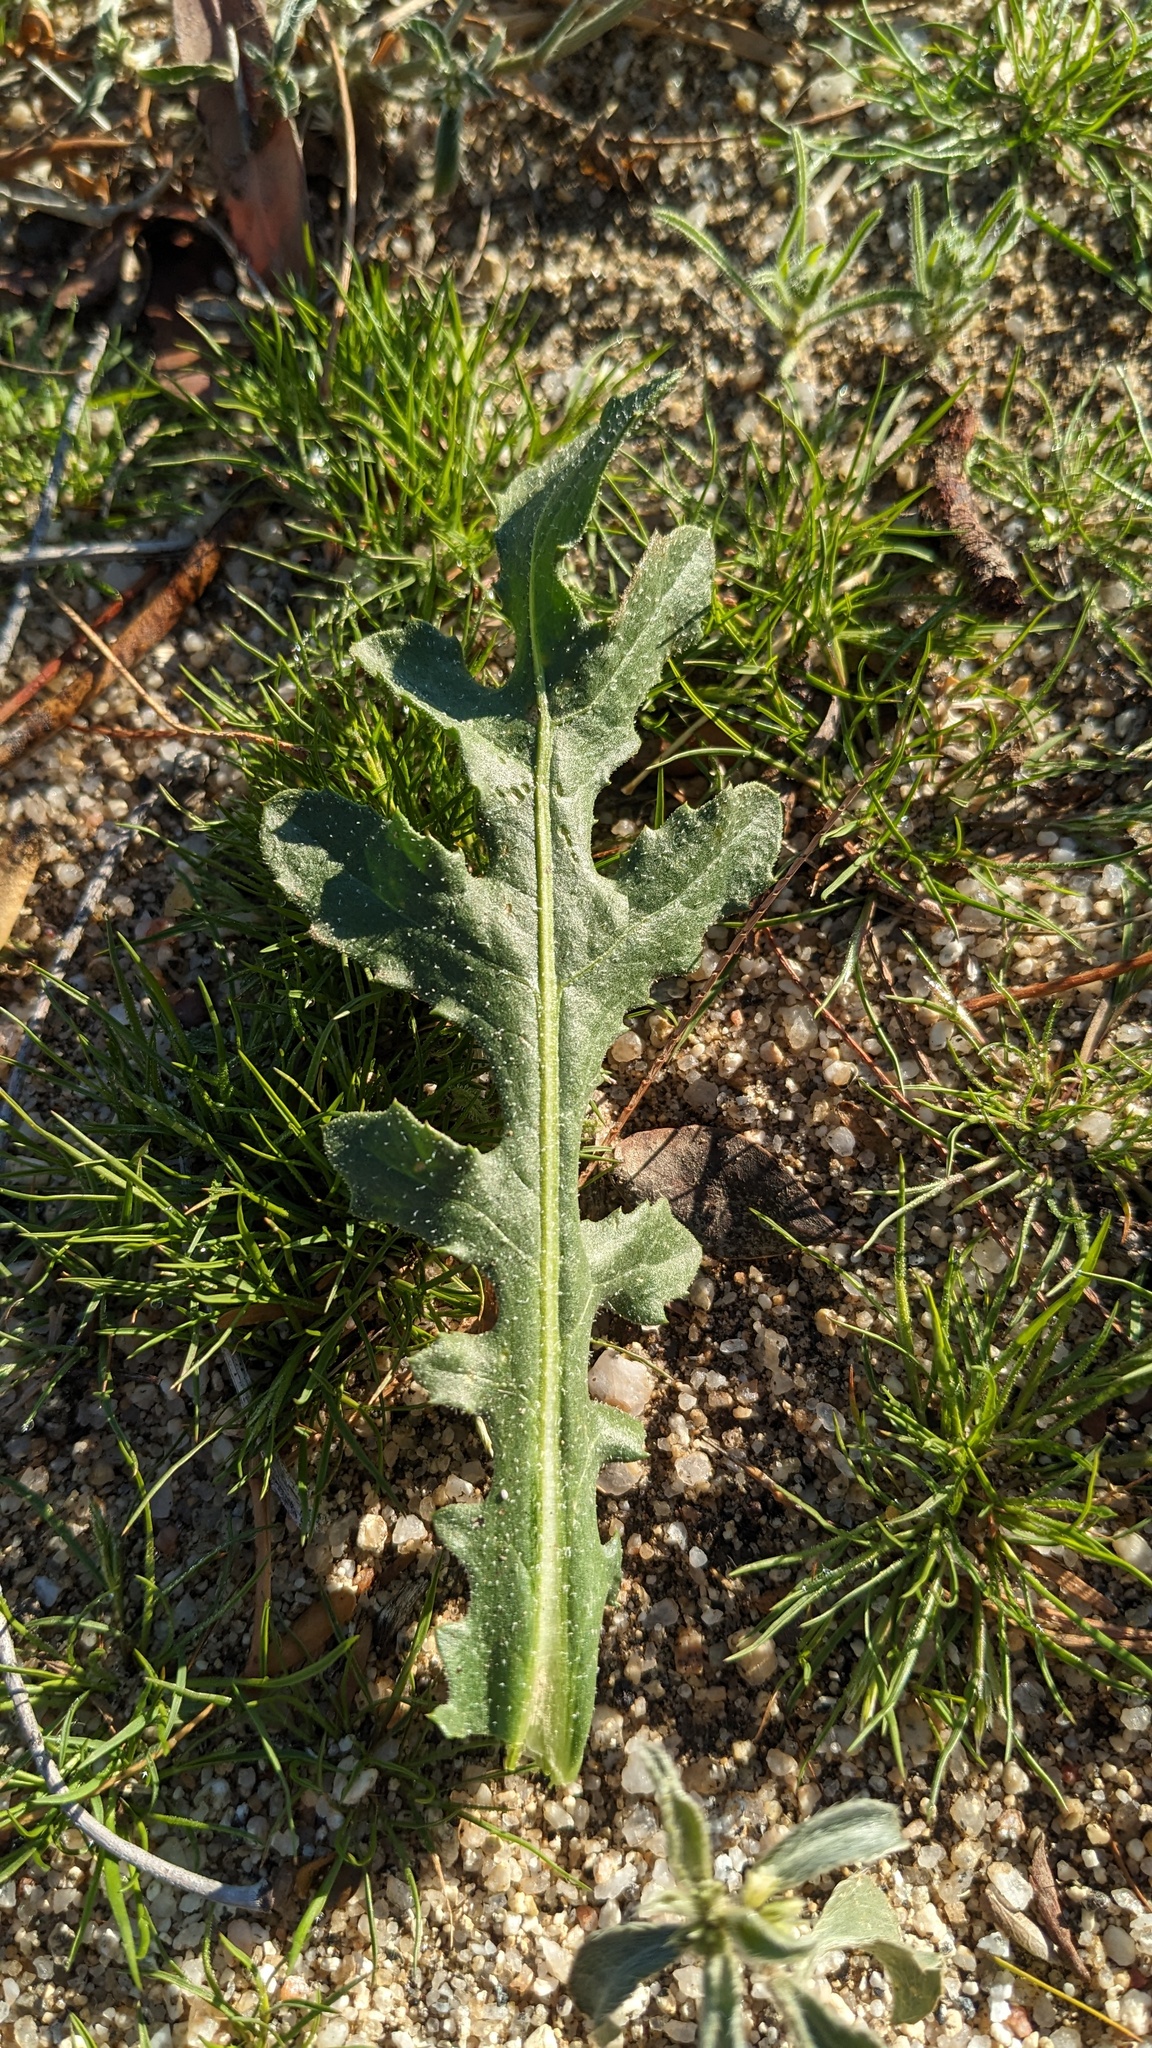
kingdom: Plantae
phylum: Tracheophyta
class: Magnoliopsida
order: Asterales
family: Asteraceae
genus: Volutaria
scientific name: Volutaria tubuliflora
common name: Desert knapweed
